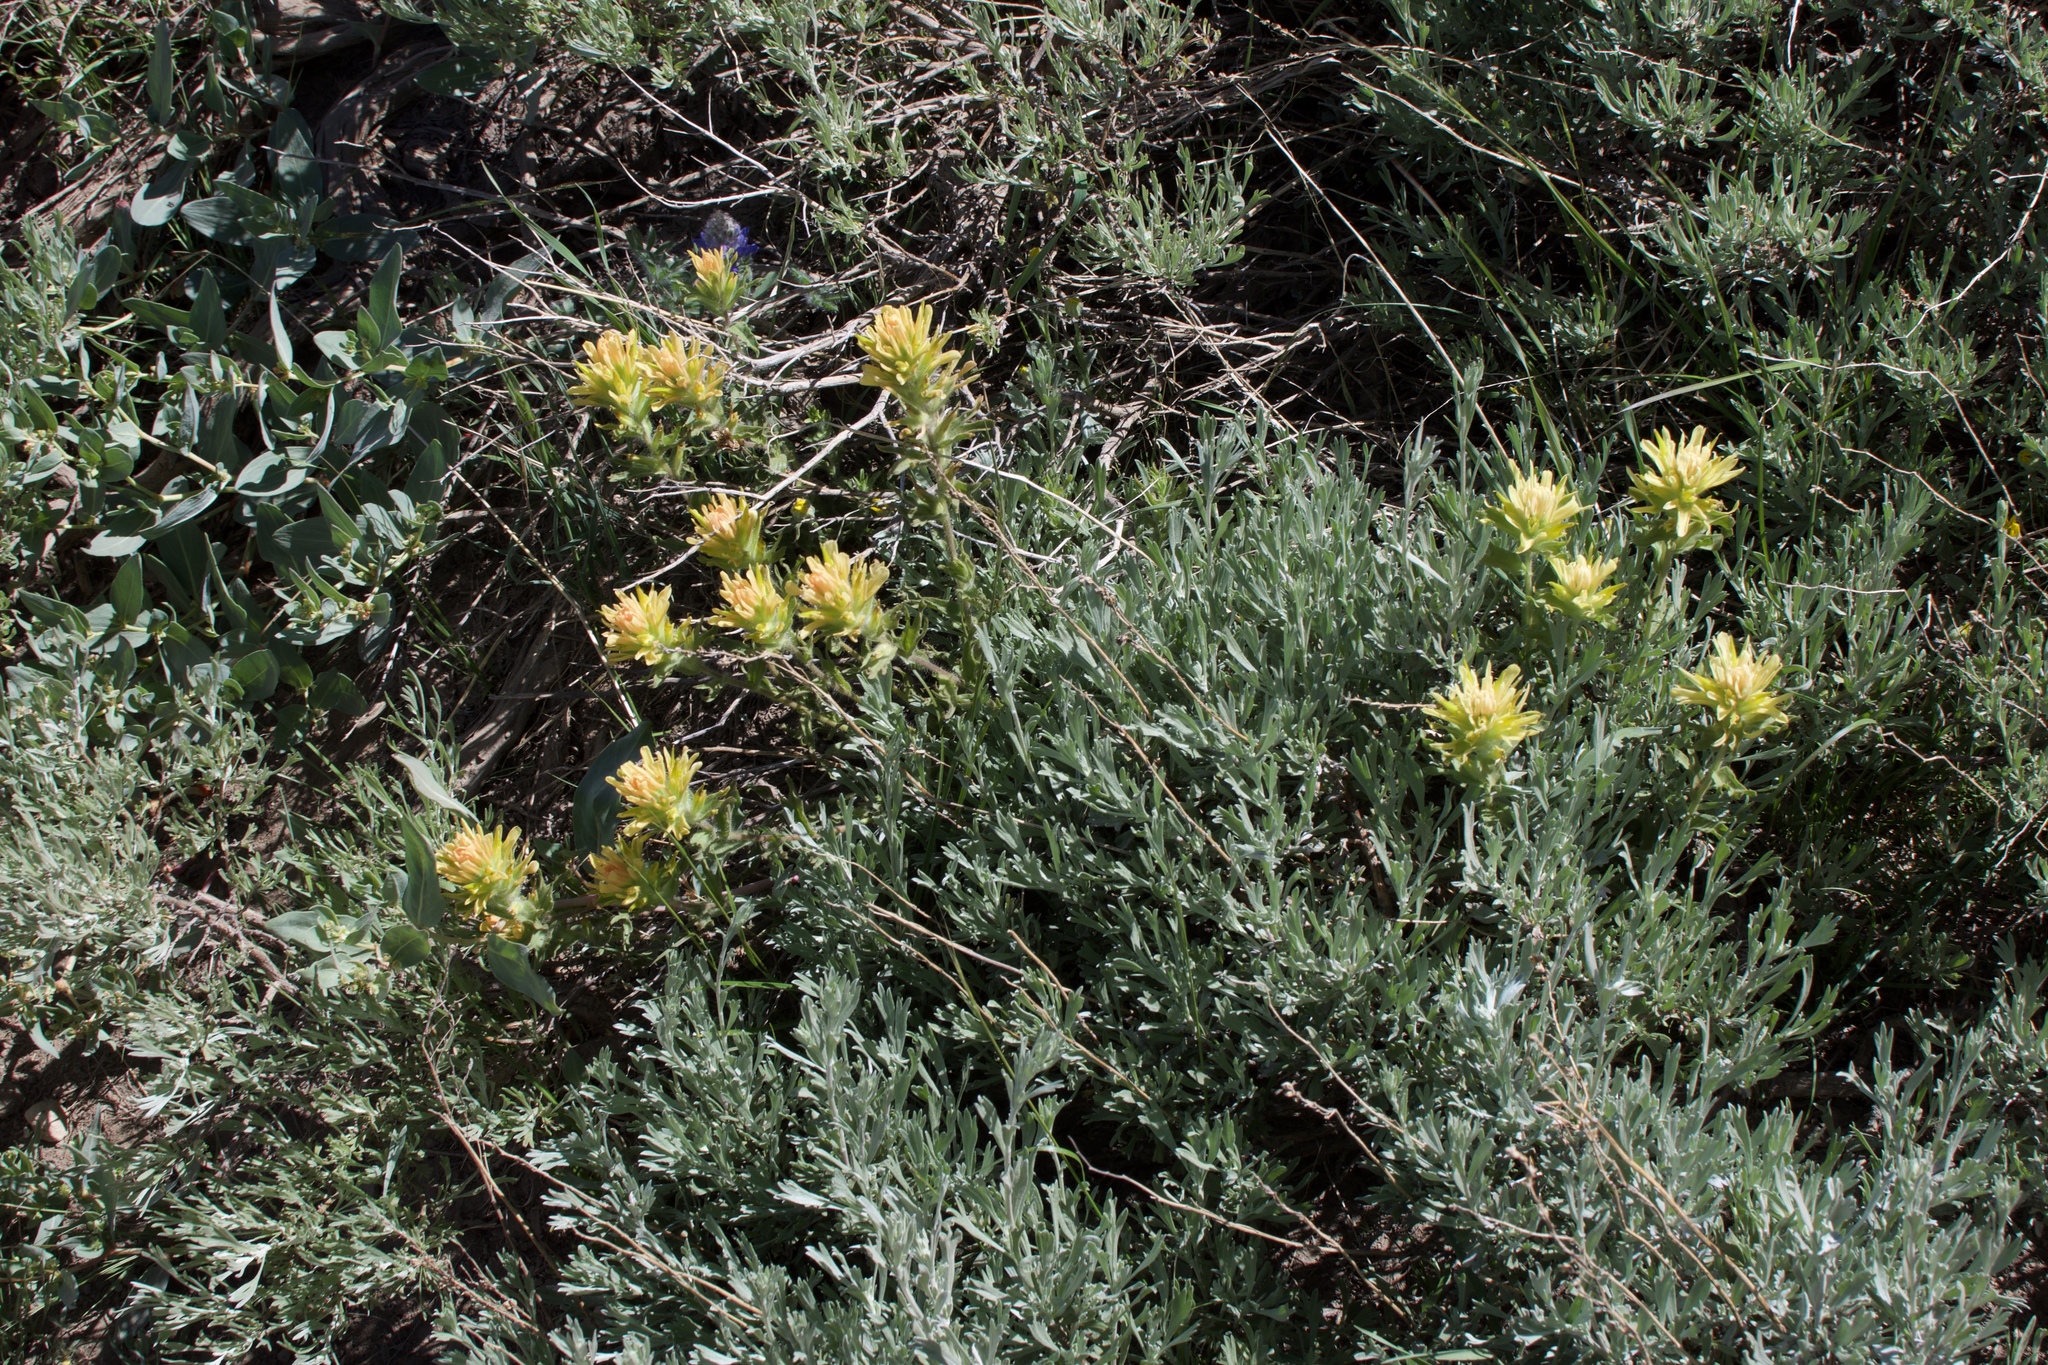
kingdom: Plantae
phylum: Tracheophyta
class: Magnoliopsida
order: Lamiales
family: Orobanchaceae
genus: Castilleja
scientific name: Castilleja applegatei
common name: Wavy-leaf paintbrush
